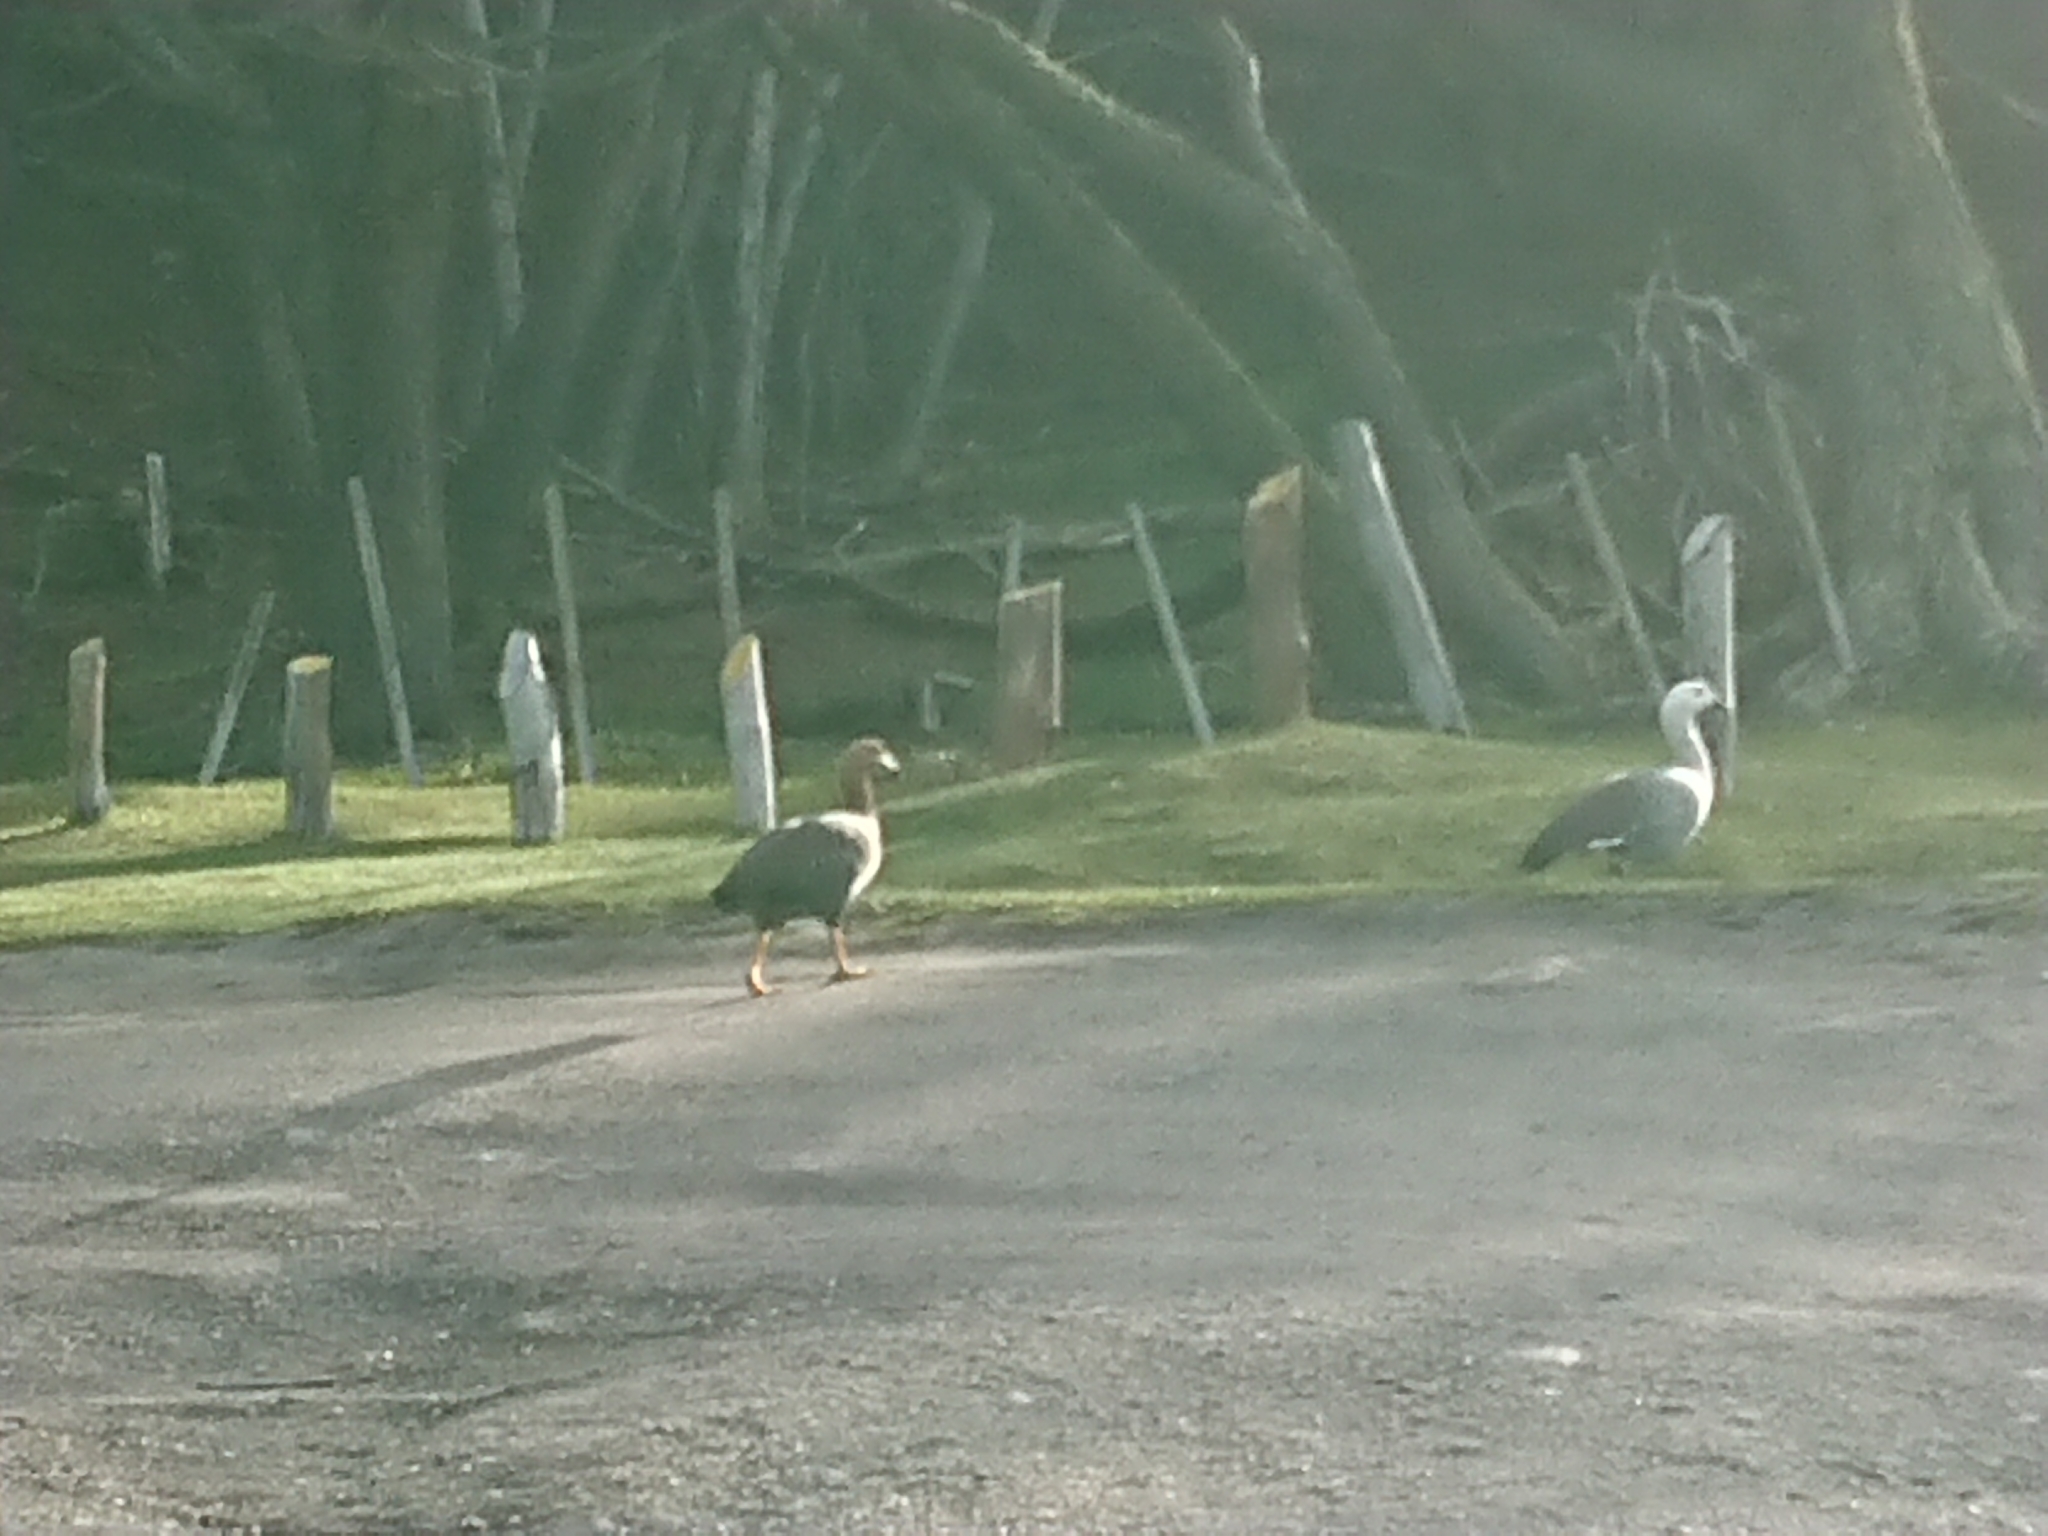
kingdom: Animalia
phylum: Chordata
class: Aves
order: Anseriformes
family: Anatidae
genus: Chloephaga
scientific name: Chloephaga picta
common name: Upland goose
